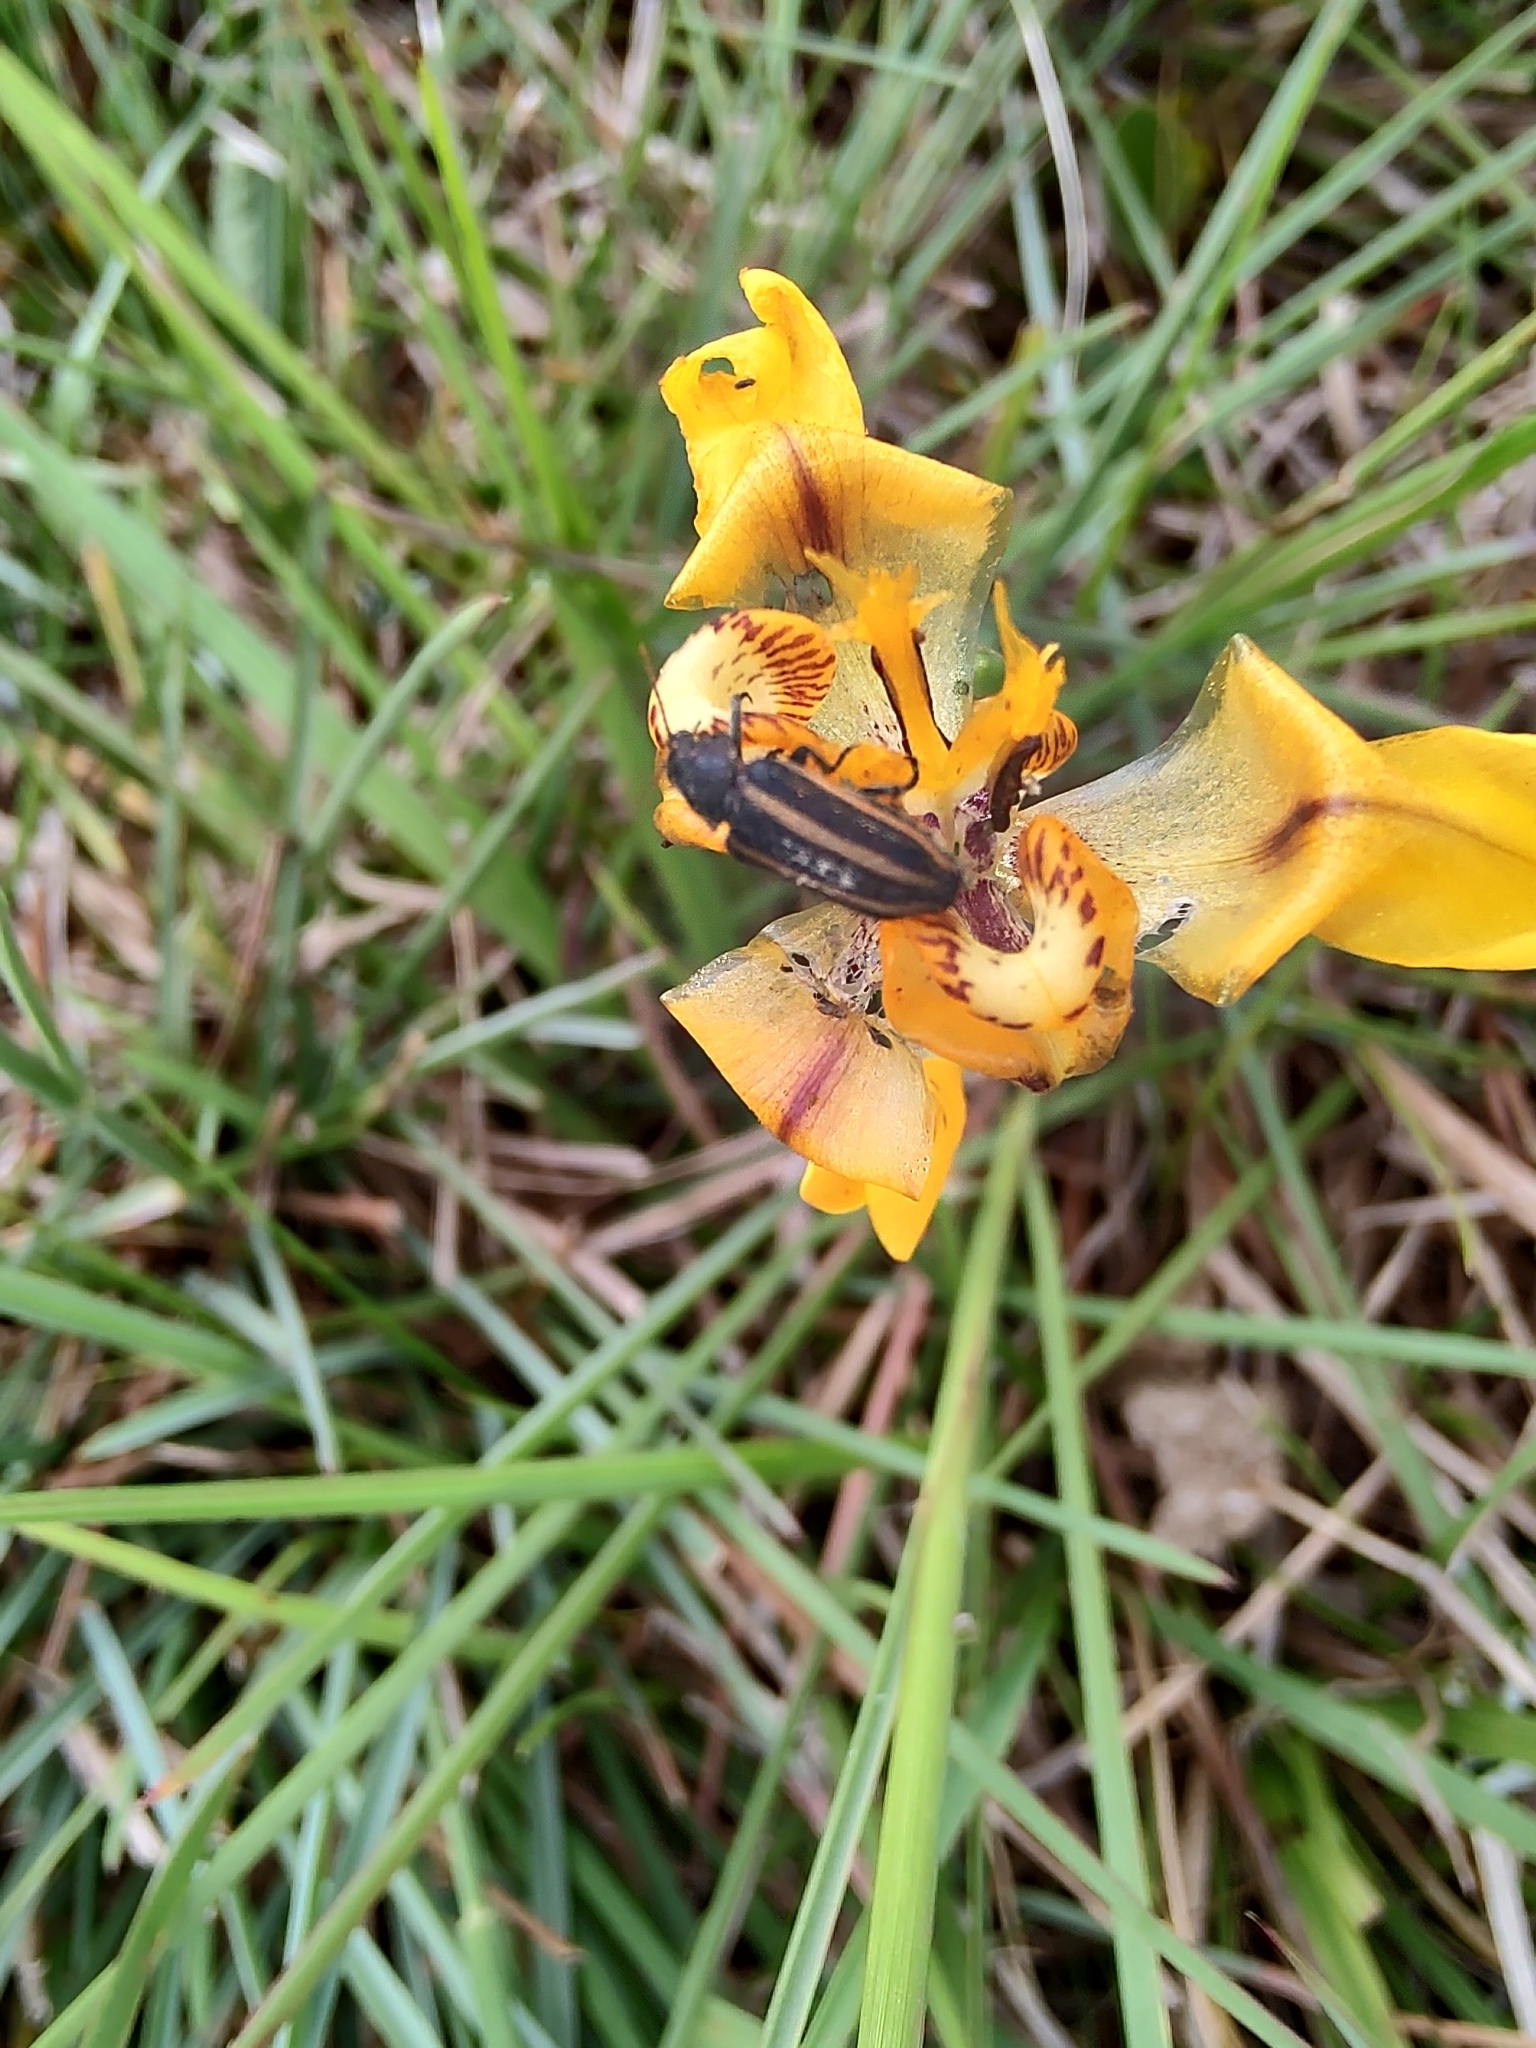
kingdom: Animalia
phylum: Arthropoda
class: Insecta
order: Coleoptera
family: Melyridae
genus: Astylus
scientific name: Astylus
